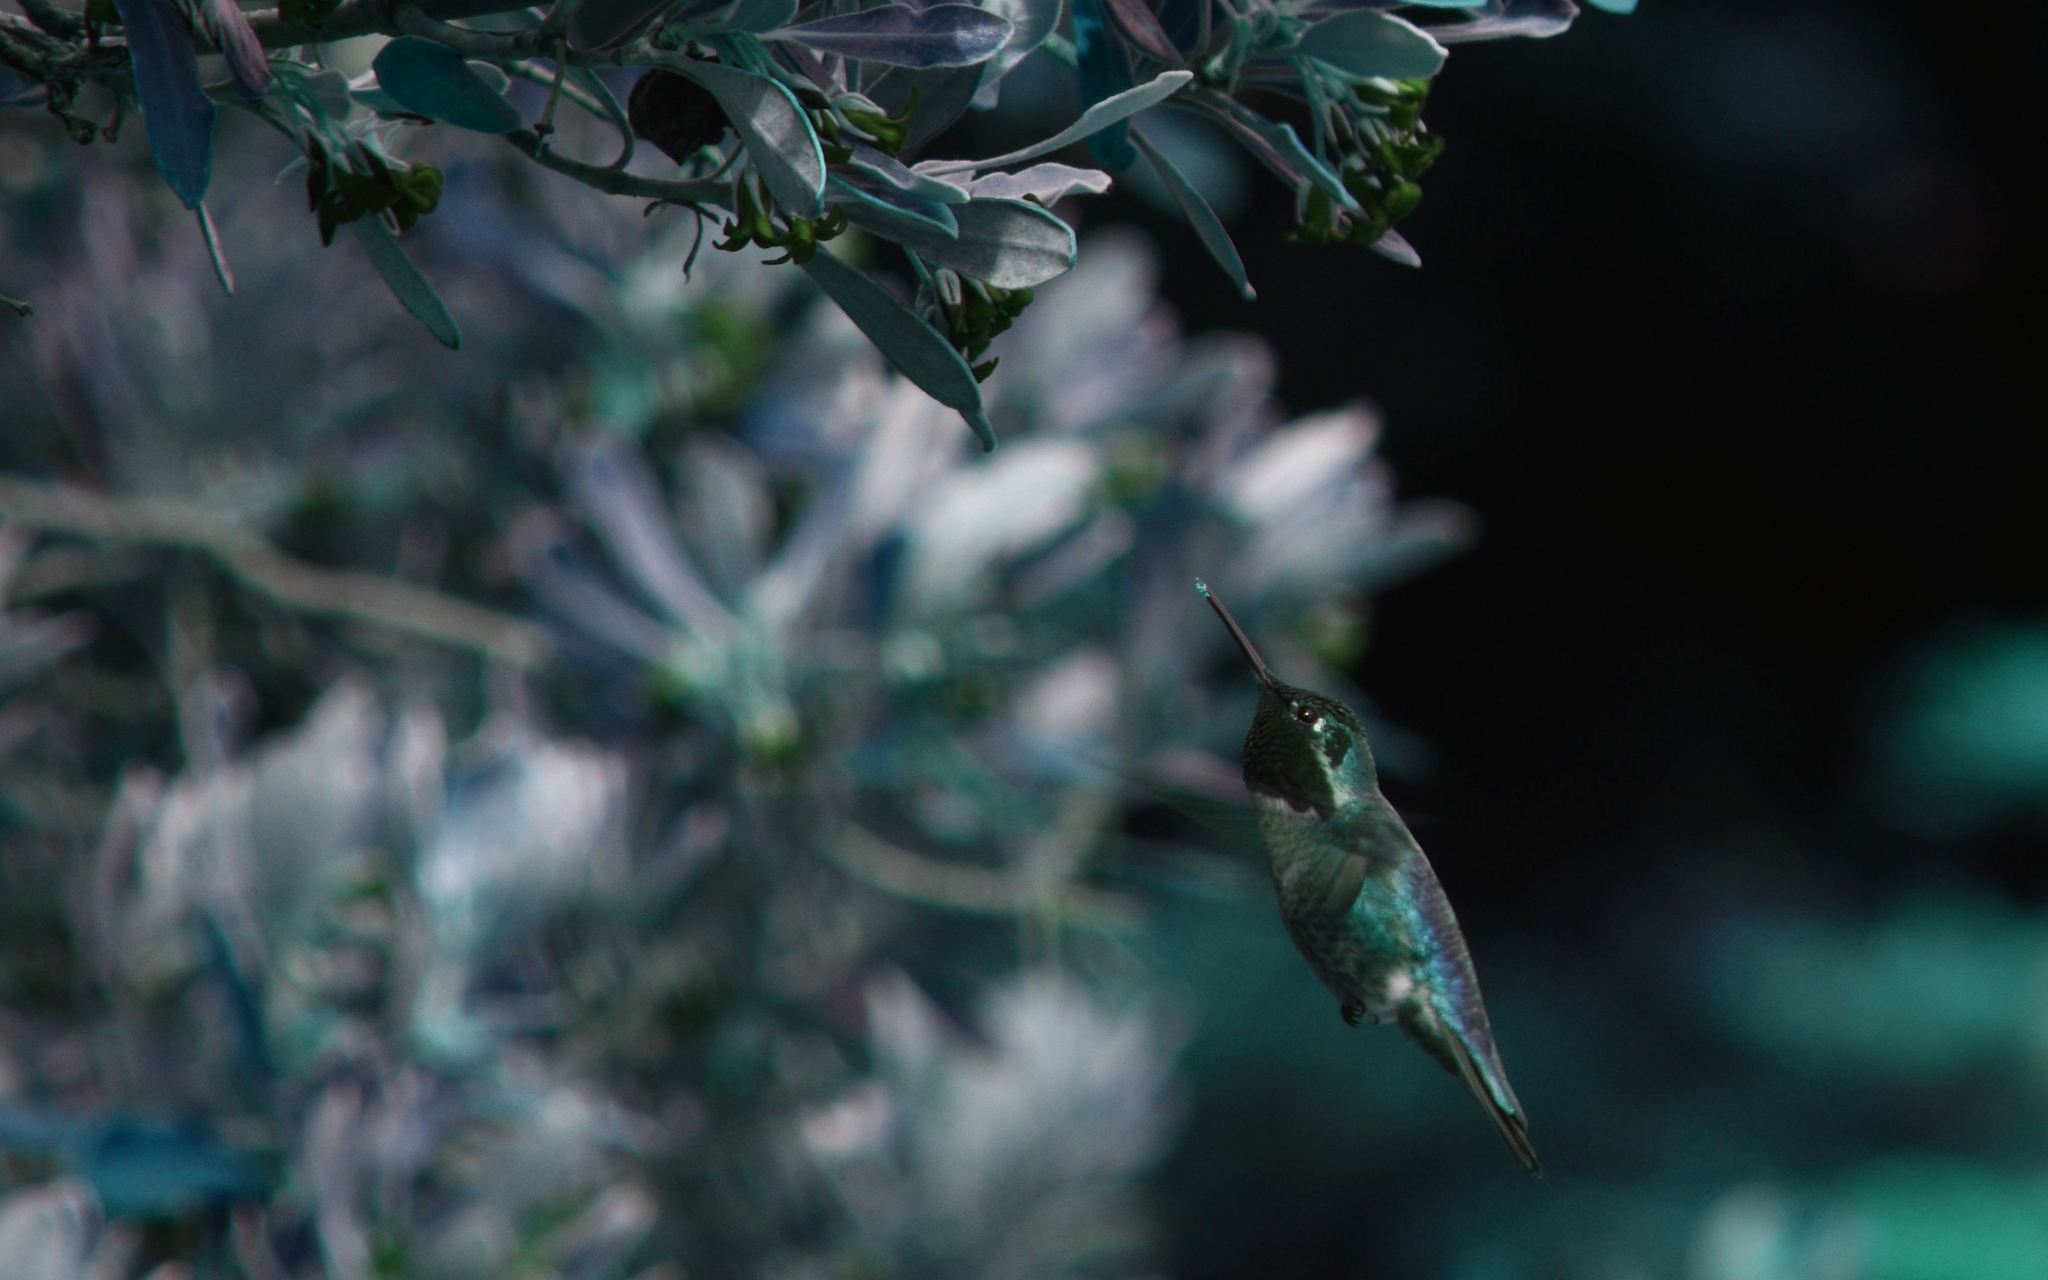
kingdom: Animalia
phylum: Chordata
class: Aves
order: Apodiformes
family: Trochilidae
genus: Calypte
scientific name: Calypte anna
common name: Anna's hummingbird
